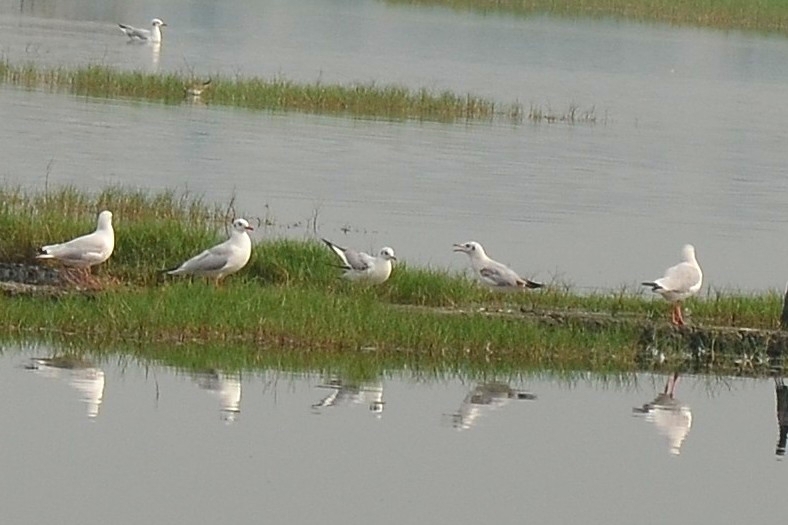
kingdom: Animalia
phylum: Chordata
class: Aves
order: Charadriiformes
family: Laridae
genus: Chroicocephalus
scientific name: Chroicocephalus brunnicephalus
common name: Brown-headed gull
